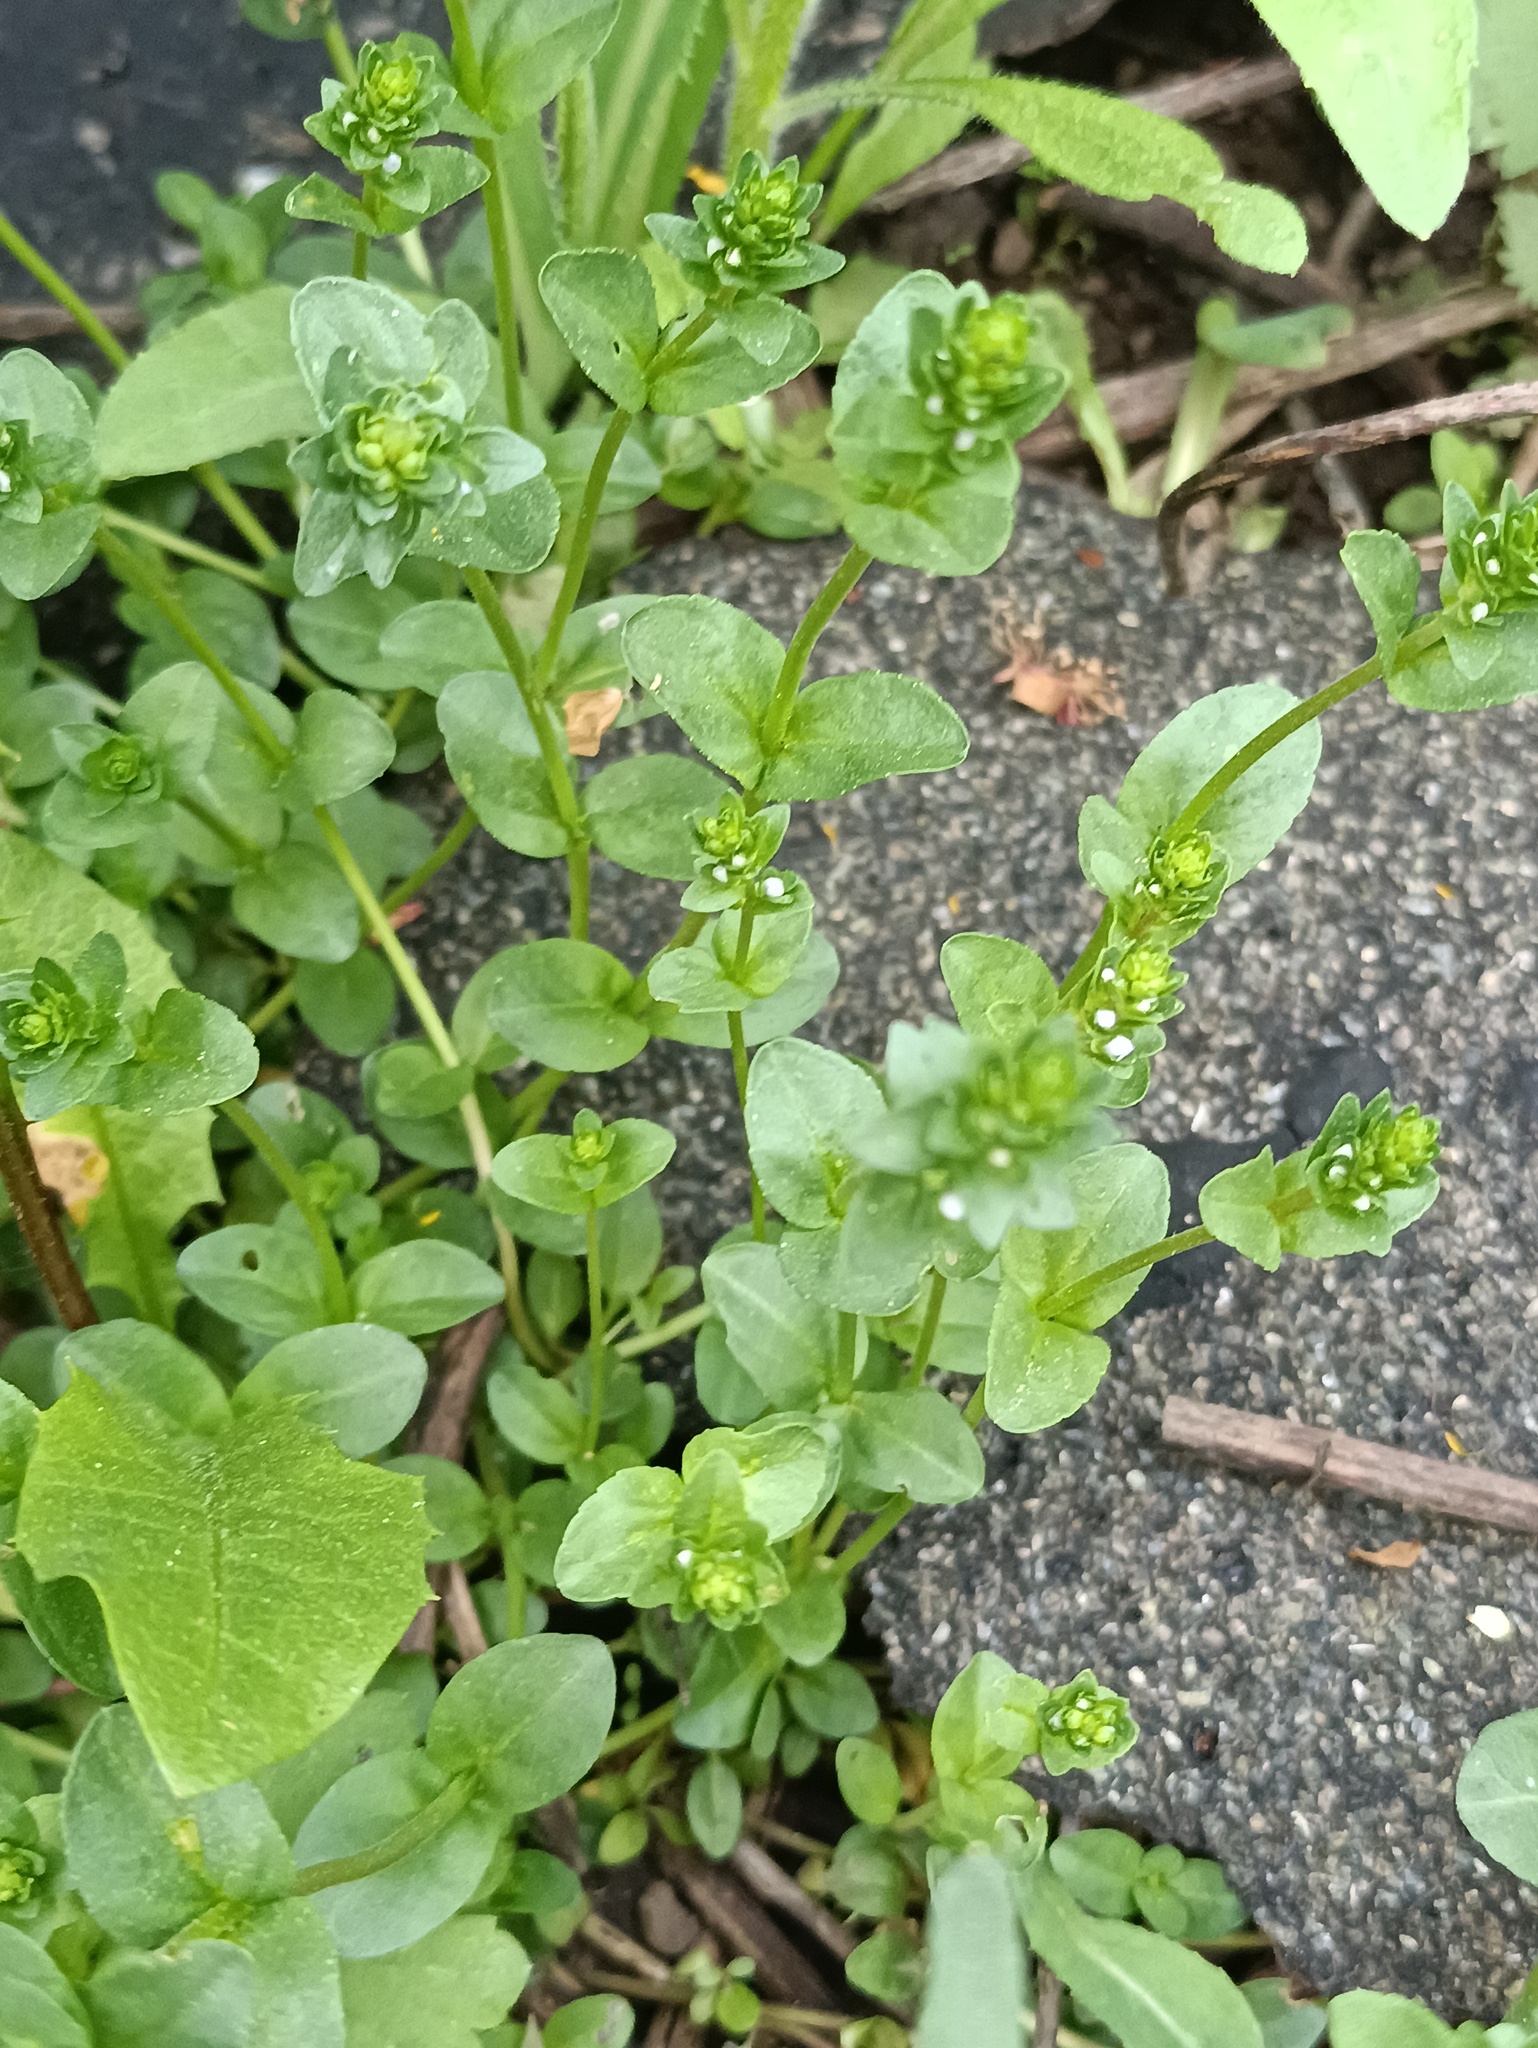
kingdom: Plantae
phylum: Tracheophyta
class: Magnoliopsida
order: Lamiales
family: Plantaginaceae
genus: Veronica
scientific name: Veronica serpyllifolia
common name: Thyme-leaved speedwell
